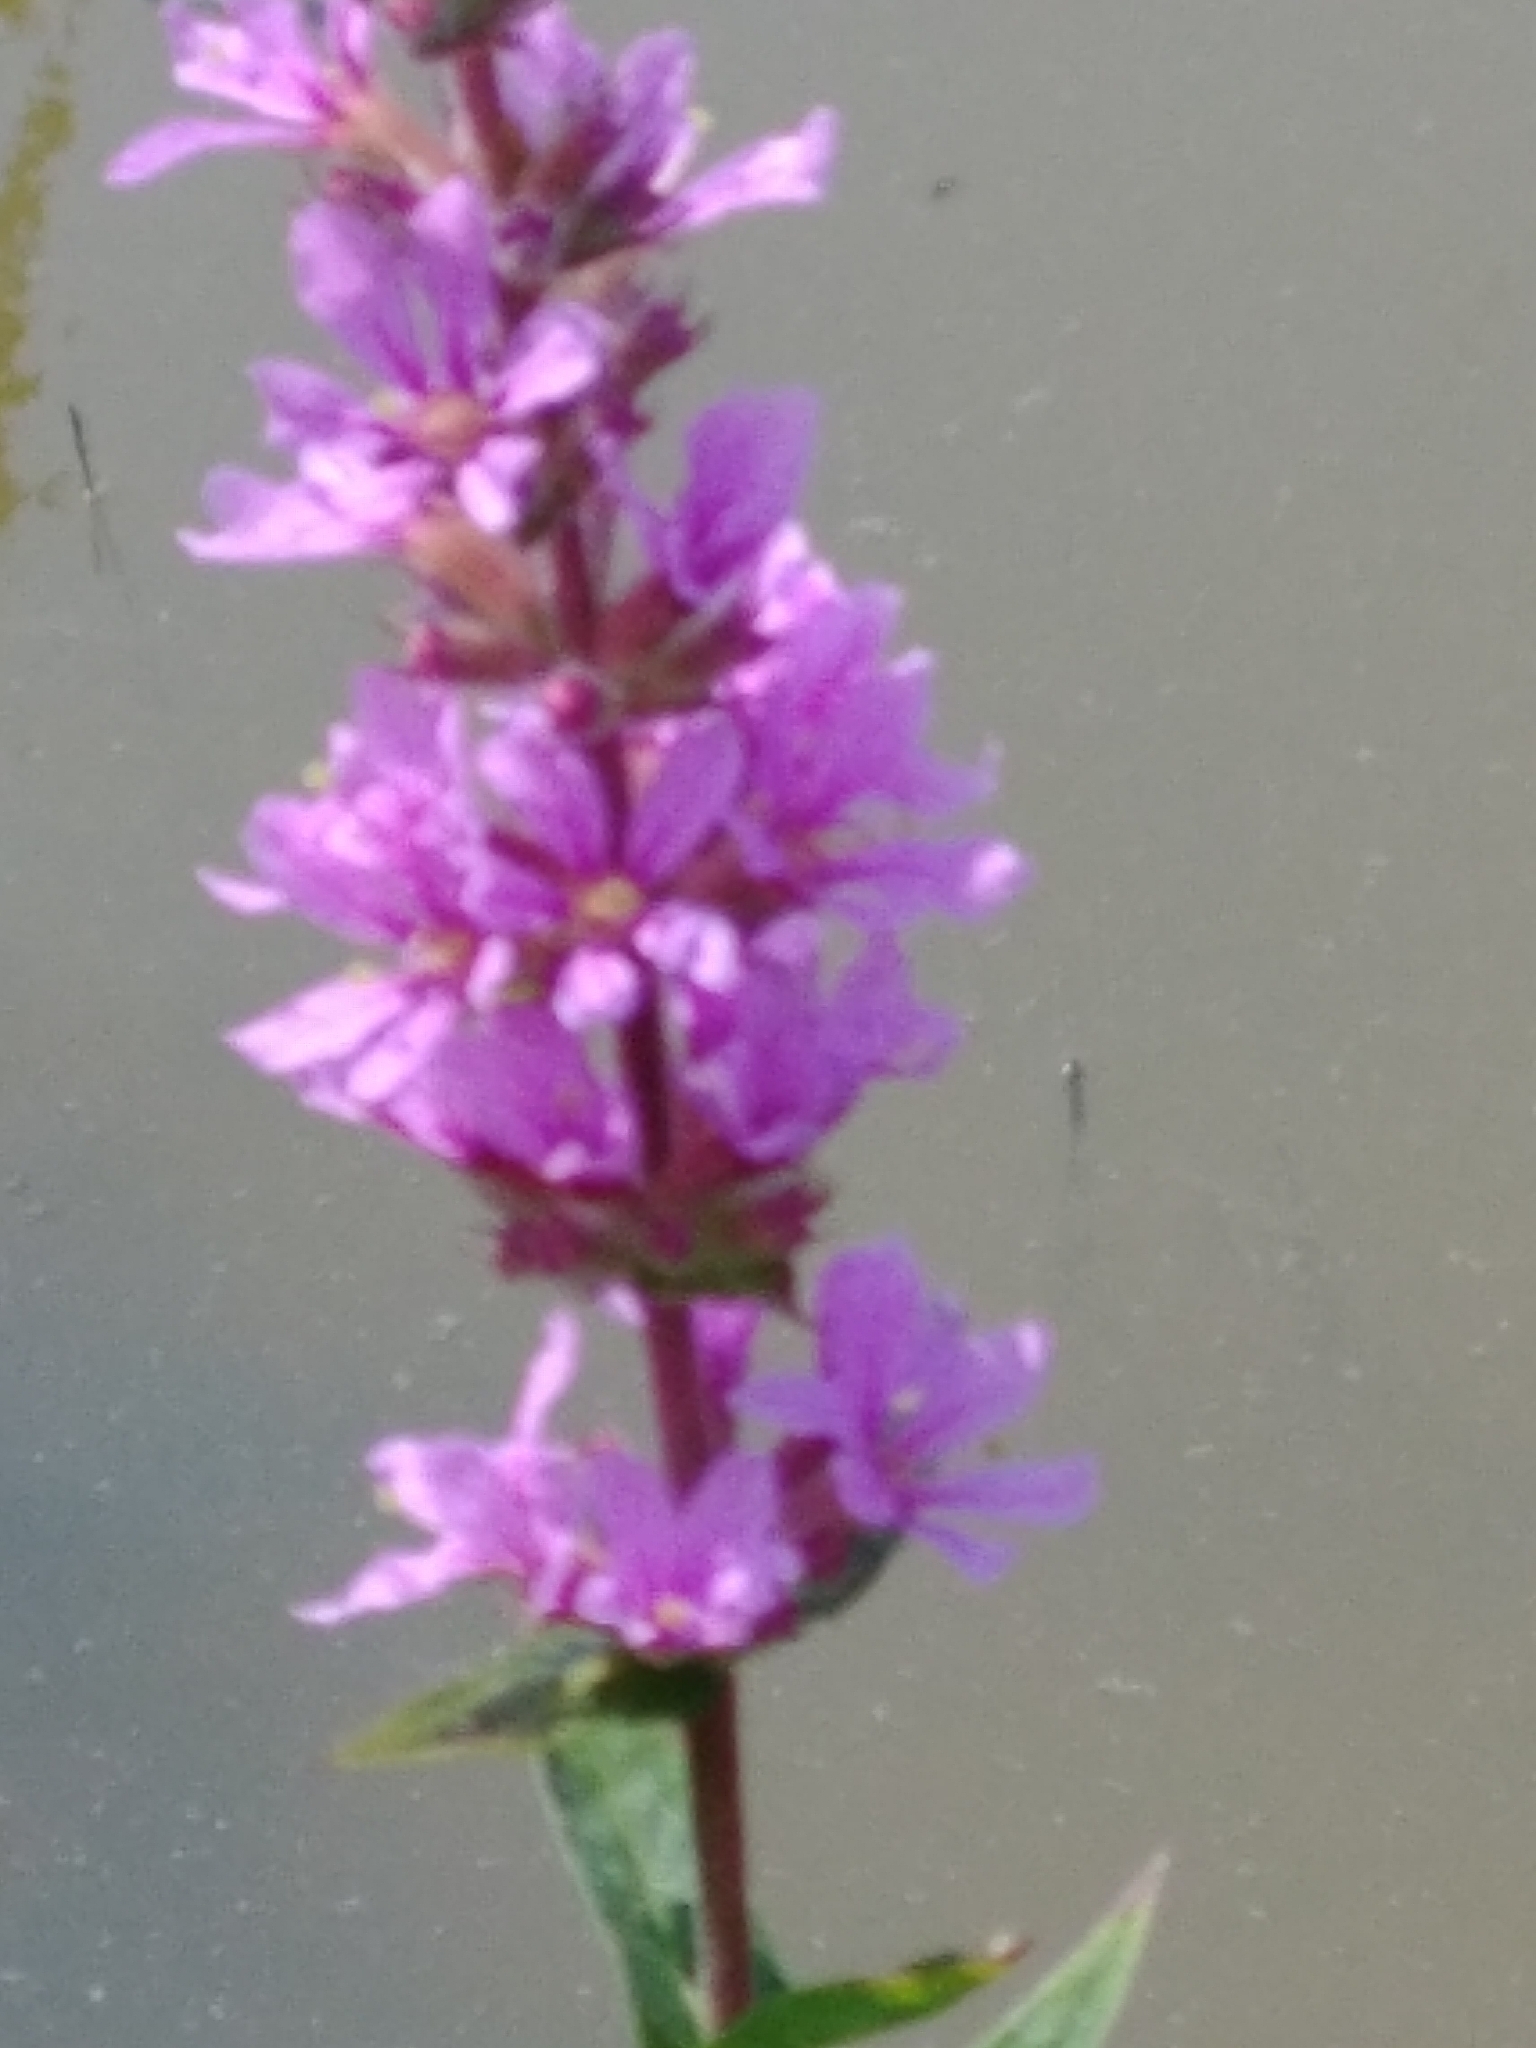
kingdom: Plantae
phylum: Tracheophyta
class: Magnoliopsida
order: Myrtales
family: Lythraceae
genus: Lythrum
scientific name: Lythrum salicaria
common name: Purple loosestrife
